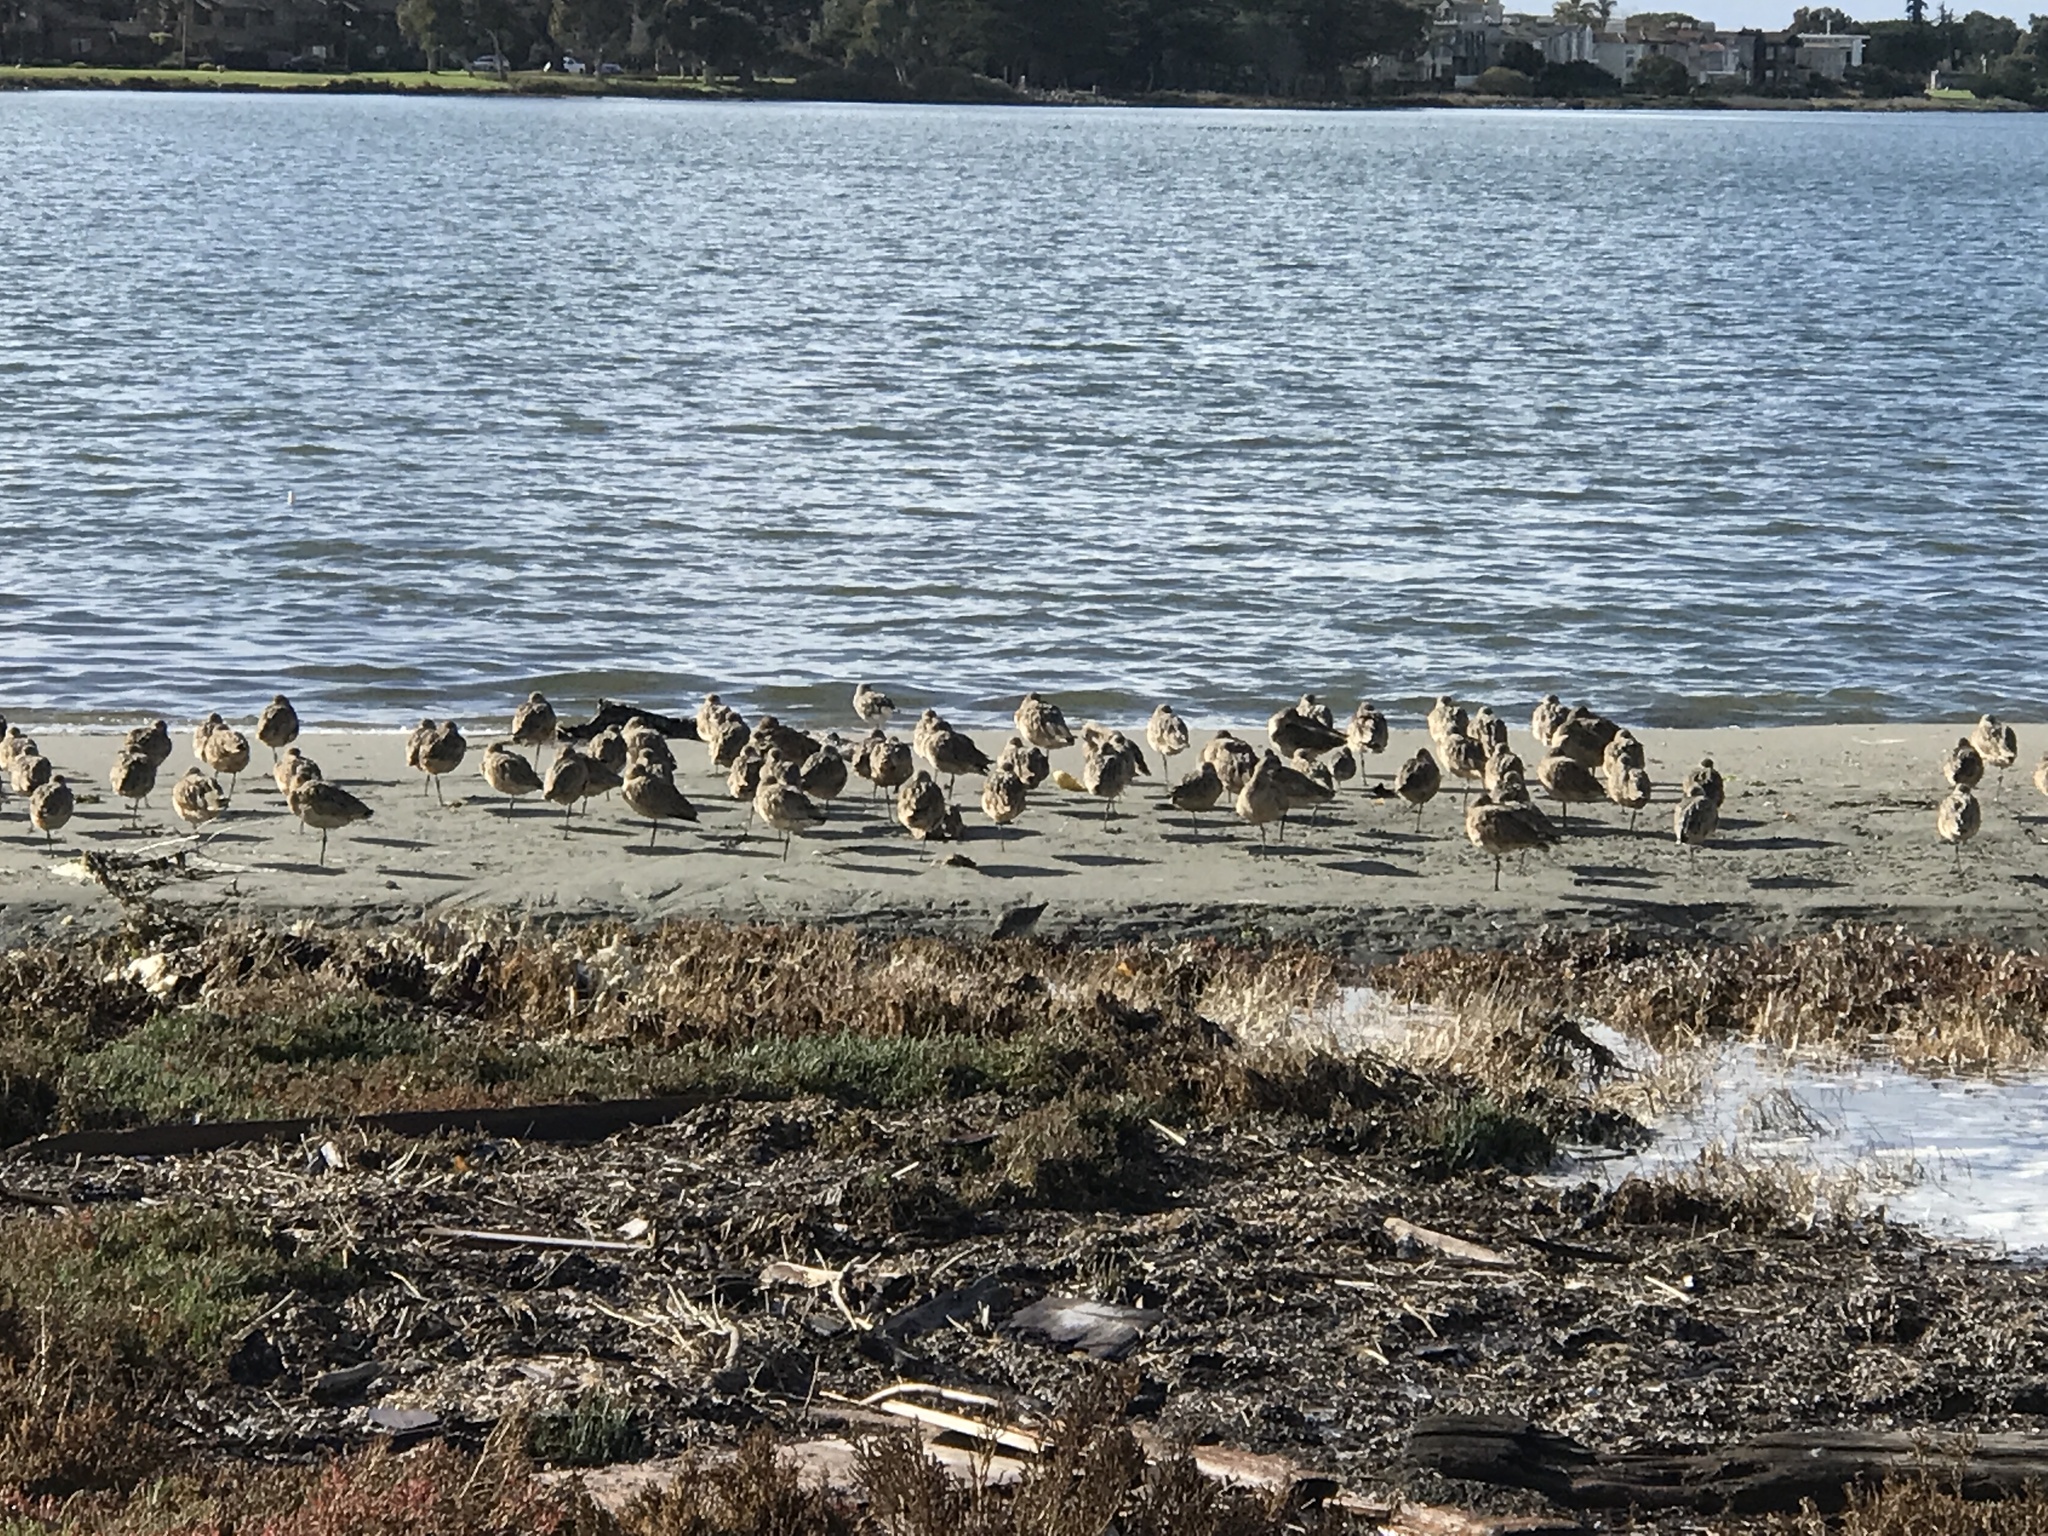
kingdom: Animalia
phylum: Chordata
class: Aves
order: Charadriiformes
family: Scolopacidae
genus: Limosa
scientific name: Limosa fedoa
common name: Marbled godwit
